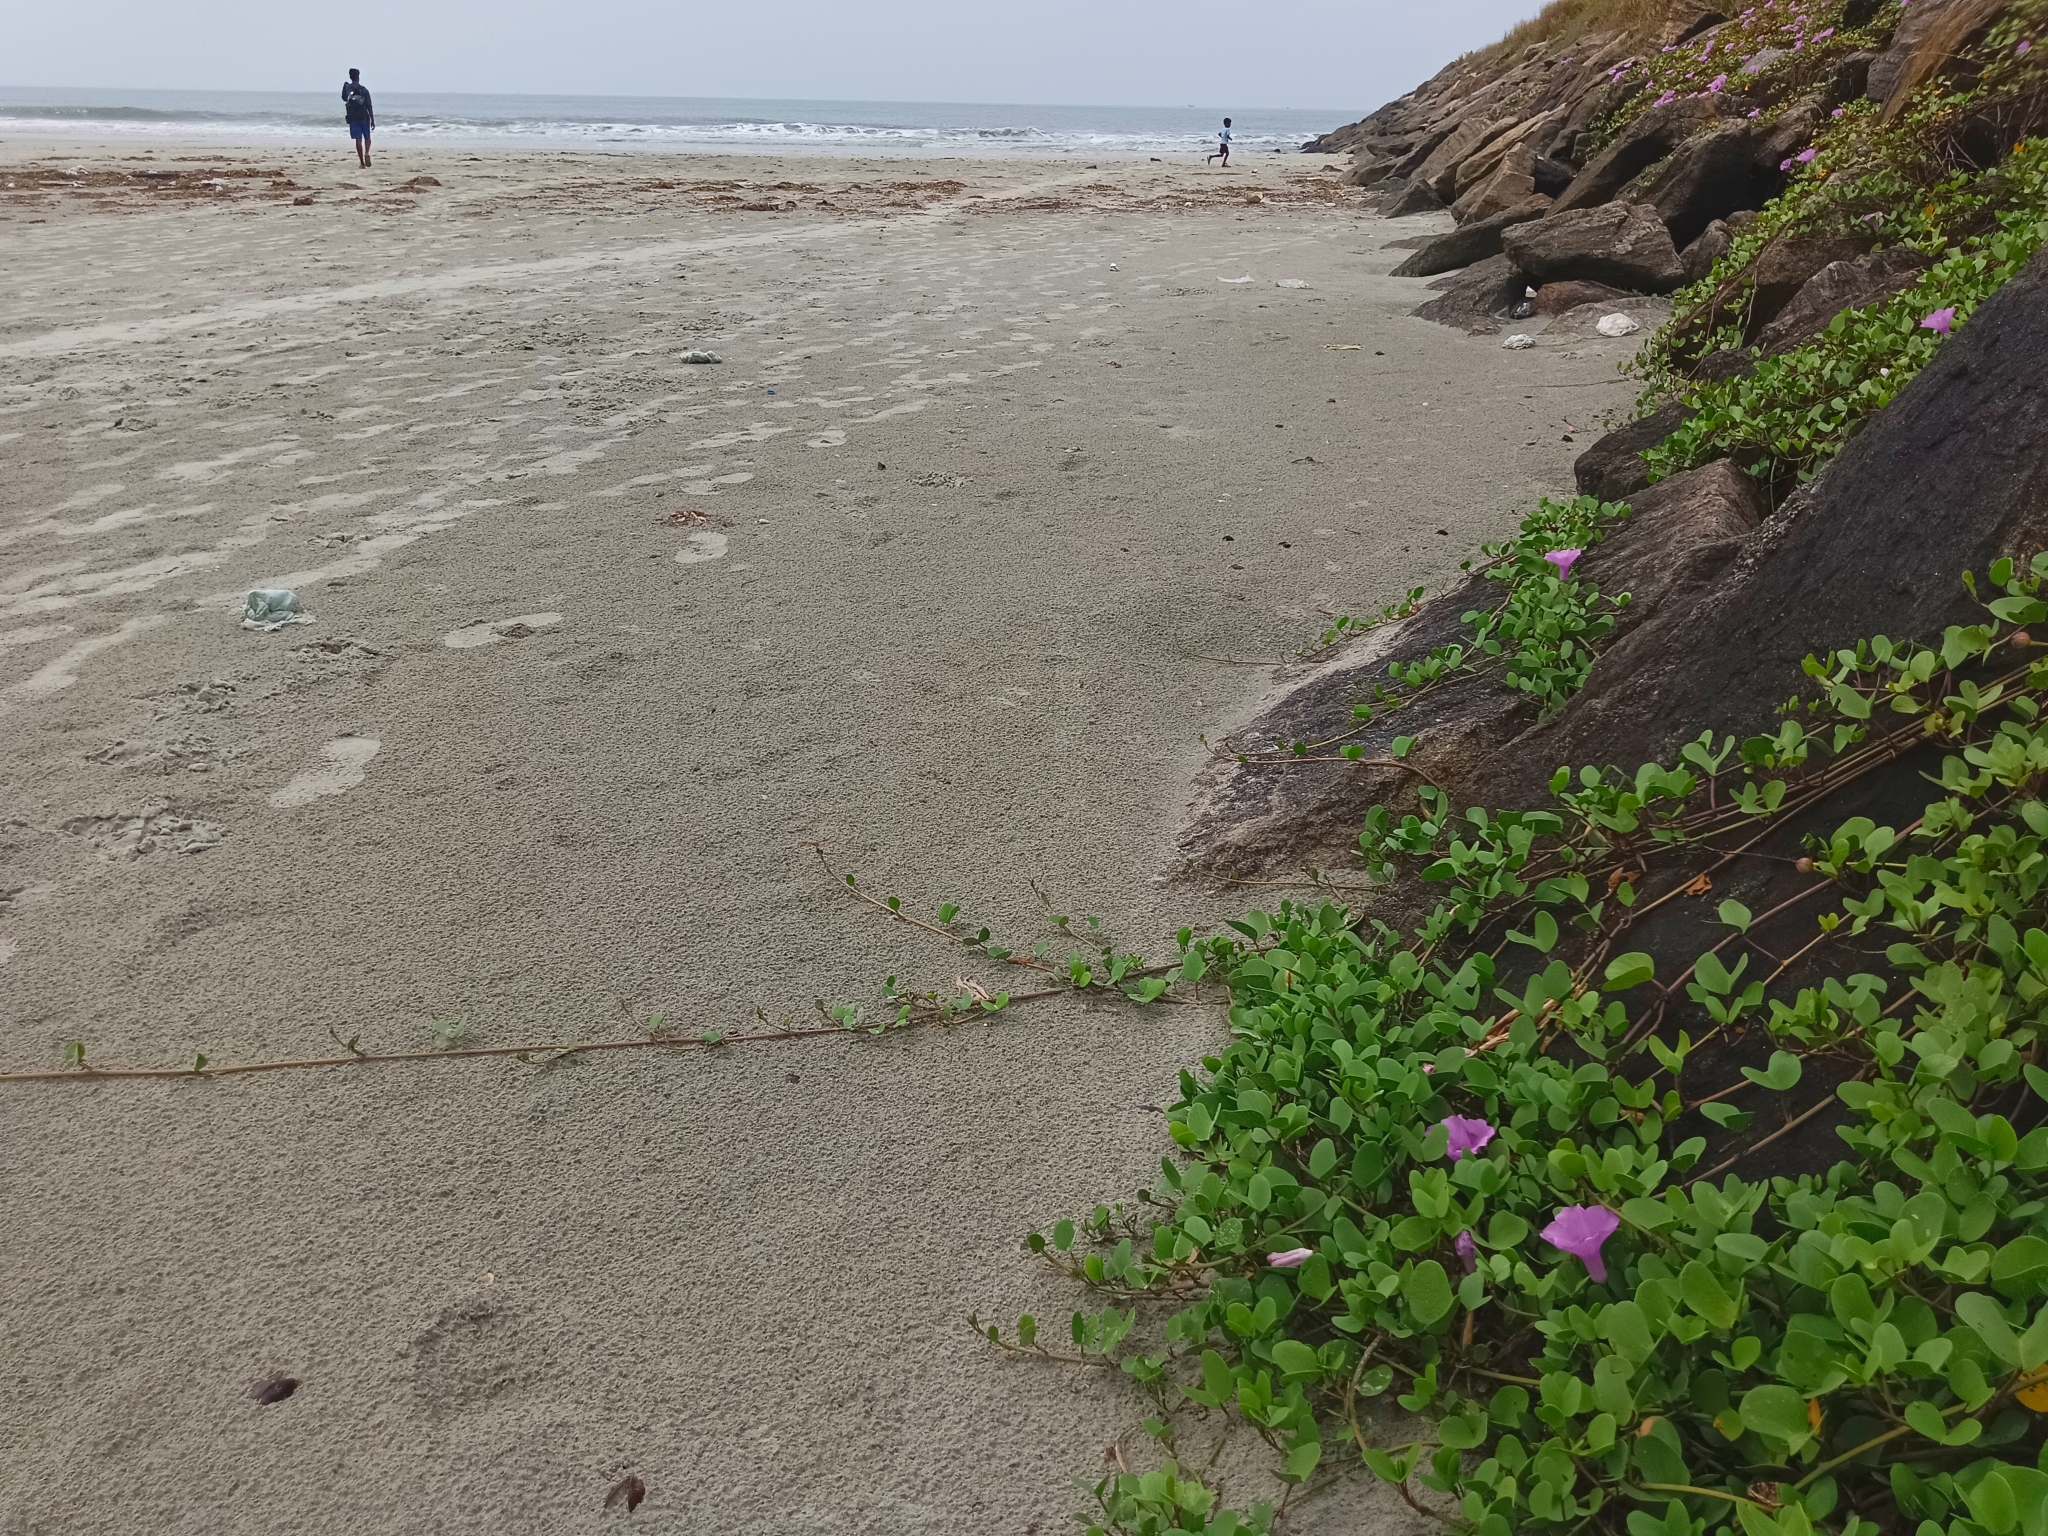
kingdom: Plantae
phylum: Tracheophyta
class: Magnoliopsida
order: Solanales
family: Convolvulaceae
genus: Ipomoea
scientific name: Ipomoea pes-caprae
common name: Beach morning glory
